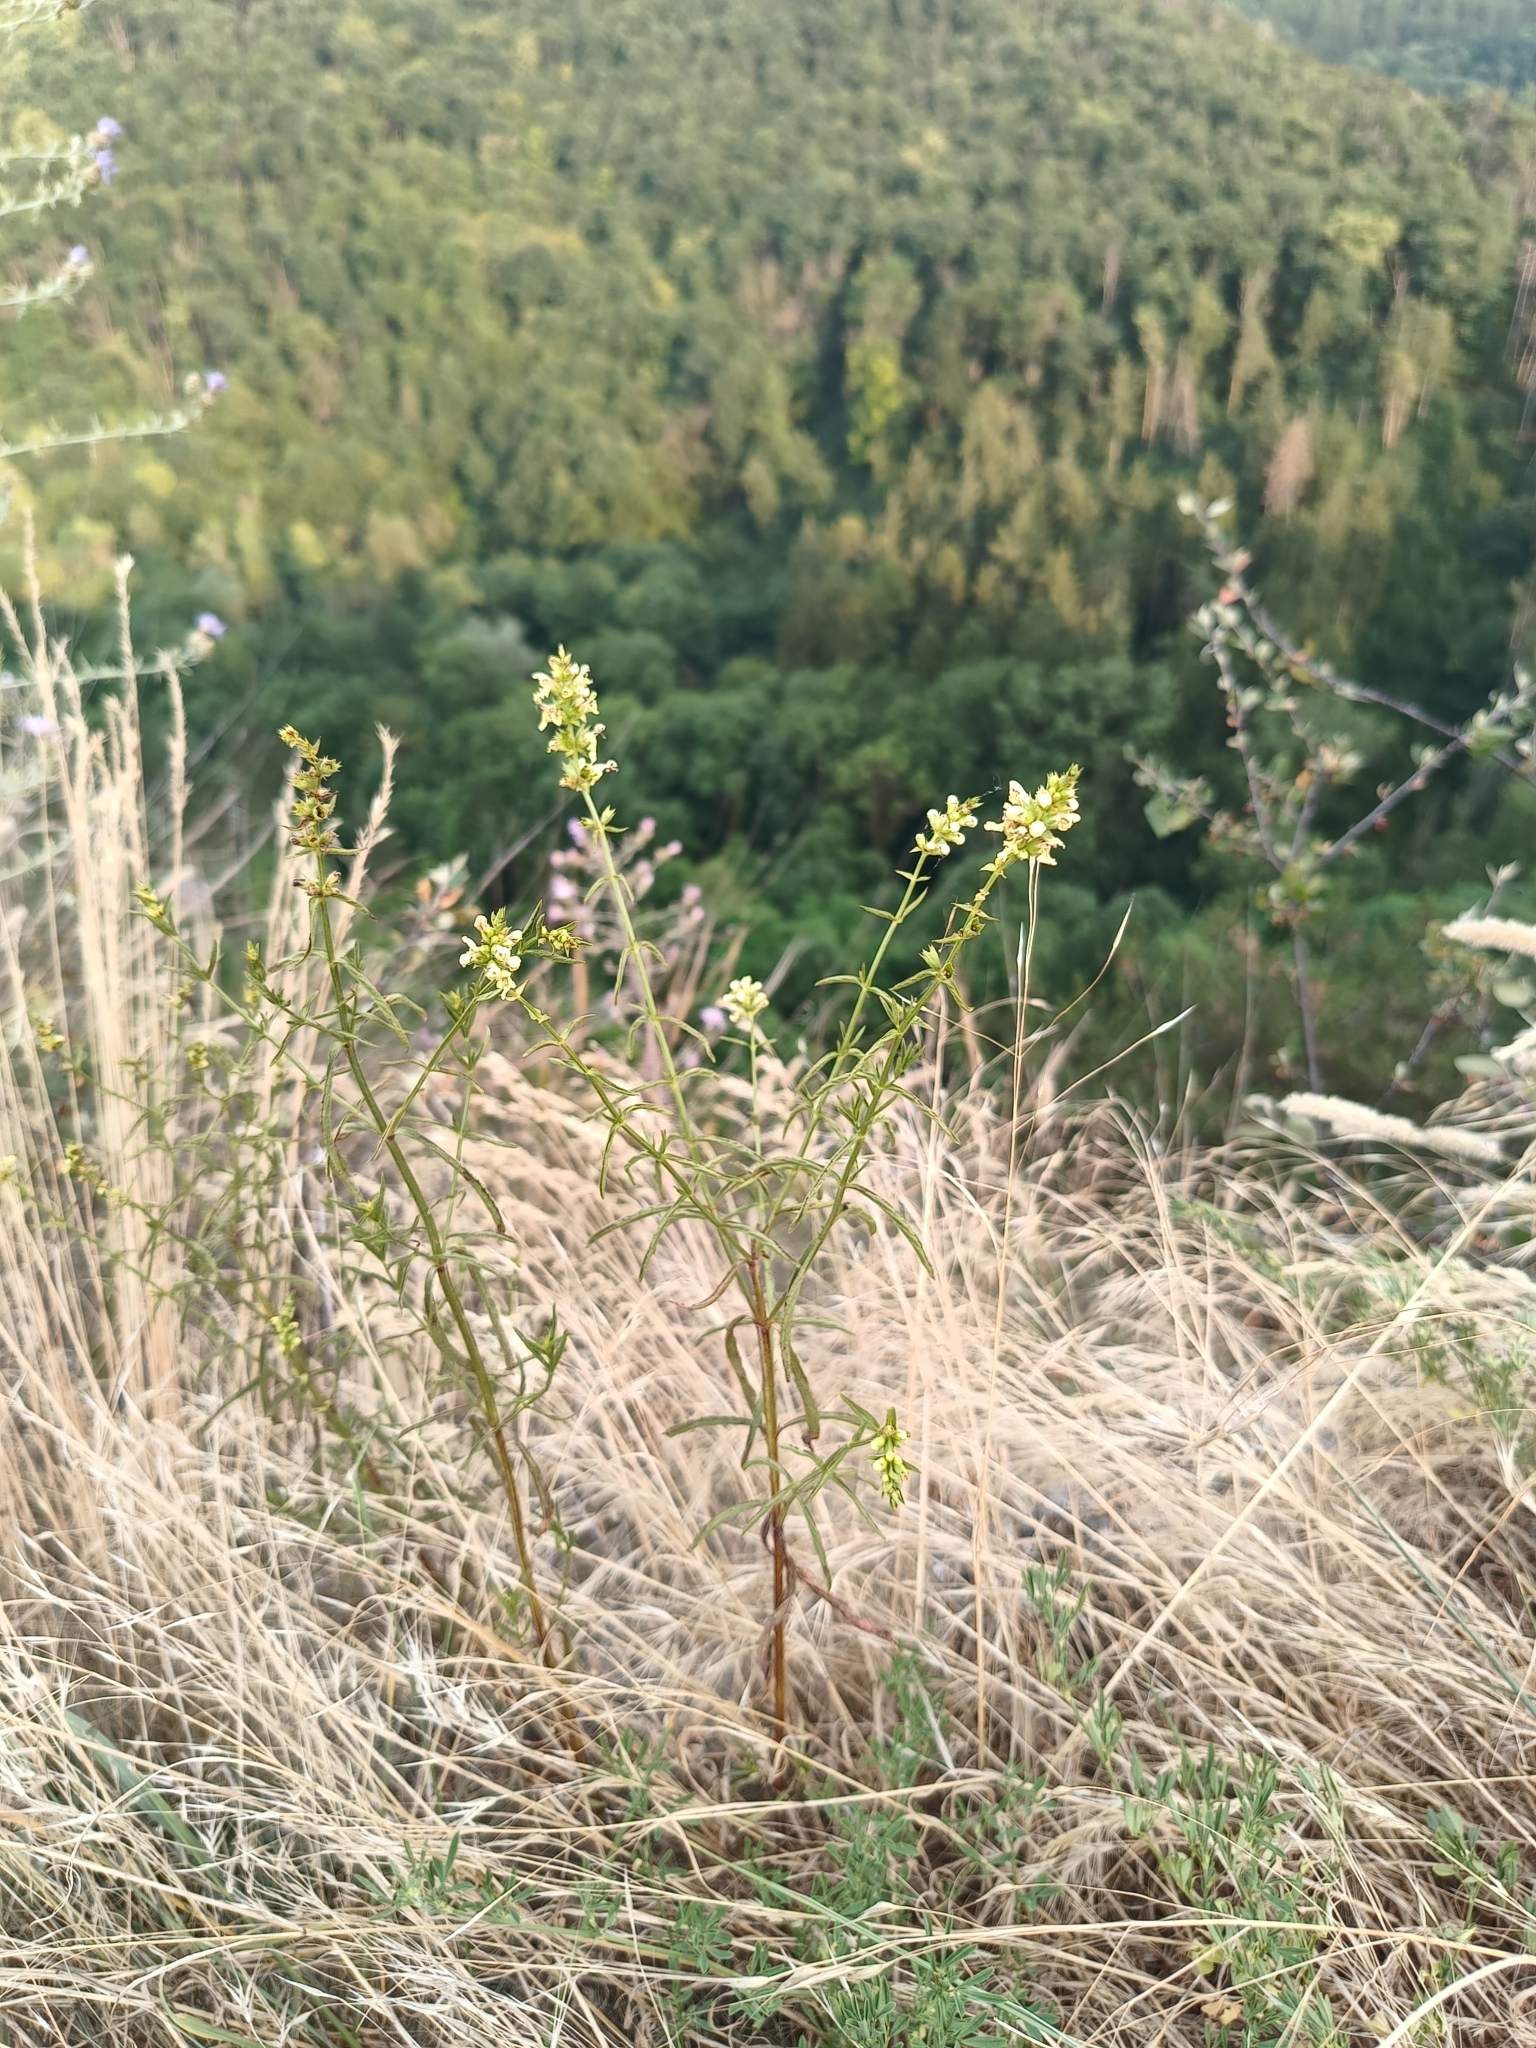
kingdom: Plantae
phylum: Tracheophyta
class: Magnoliopsida
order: Lamiales
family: Lamiaceae
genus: Stachys
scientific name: Stachys recta
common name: Perennial yellow-woundwort
